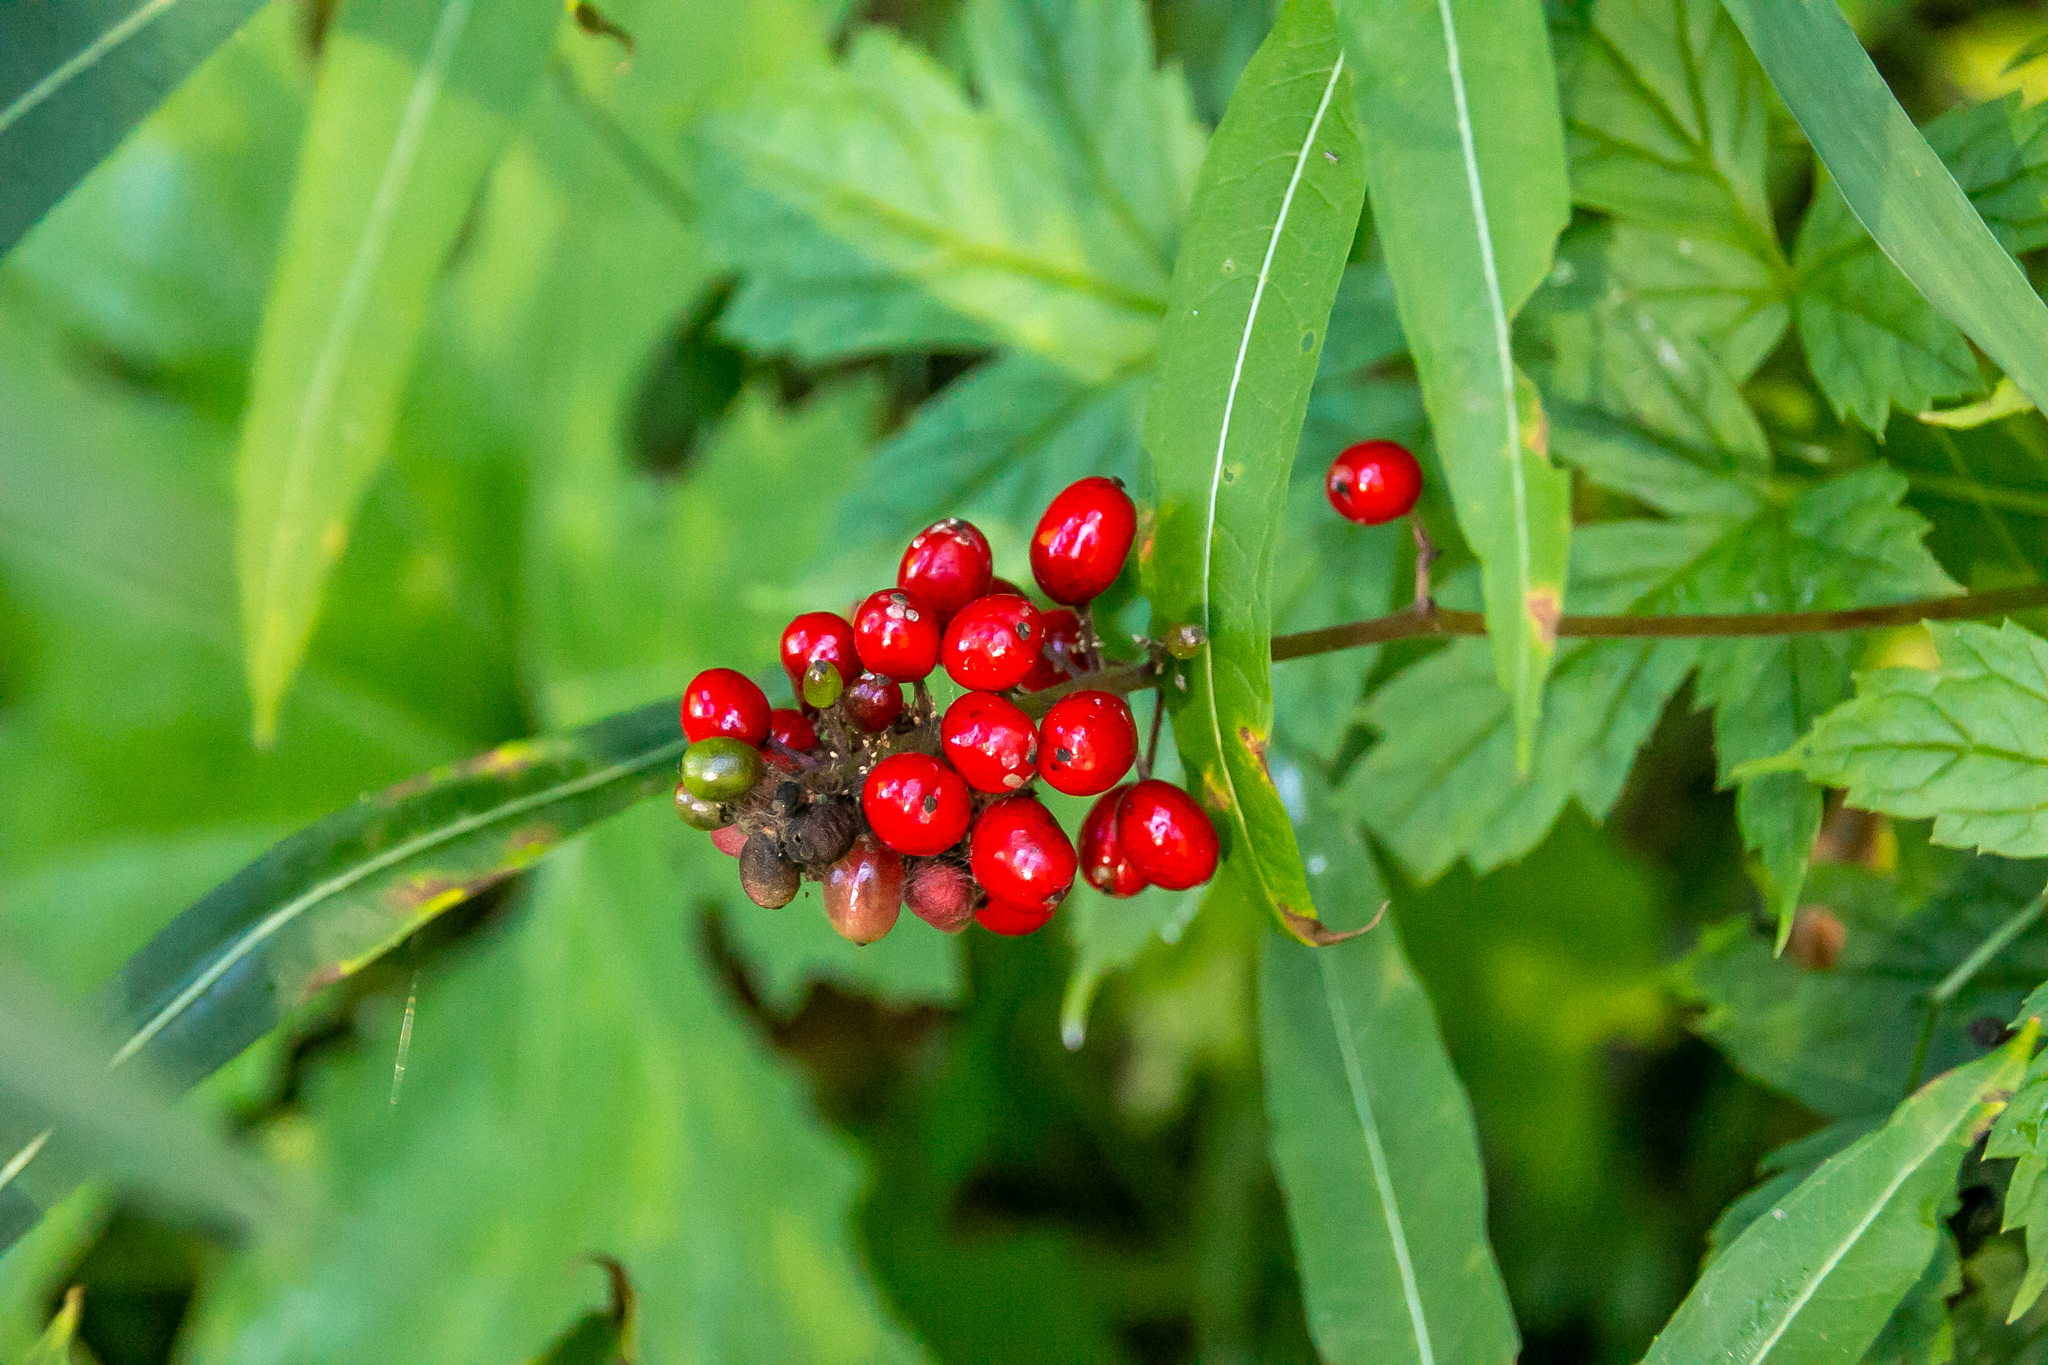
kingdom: Plantae
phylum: Tracheophyta
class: Magnoliopsida
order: Ranunculales
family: Ranunculaceae
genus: Actaea
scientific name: Actaea rubra
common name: Red baneberry
